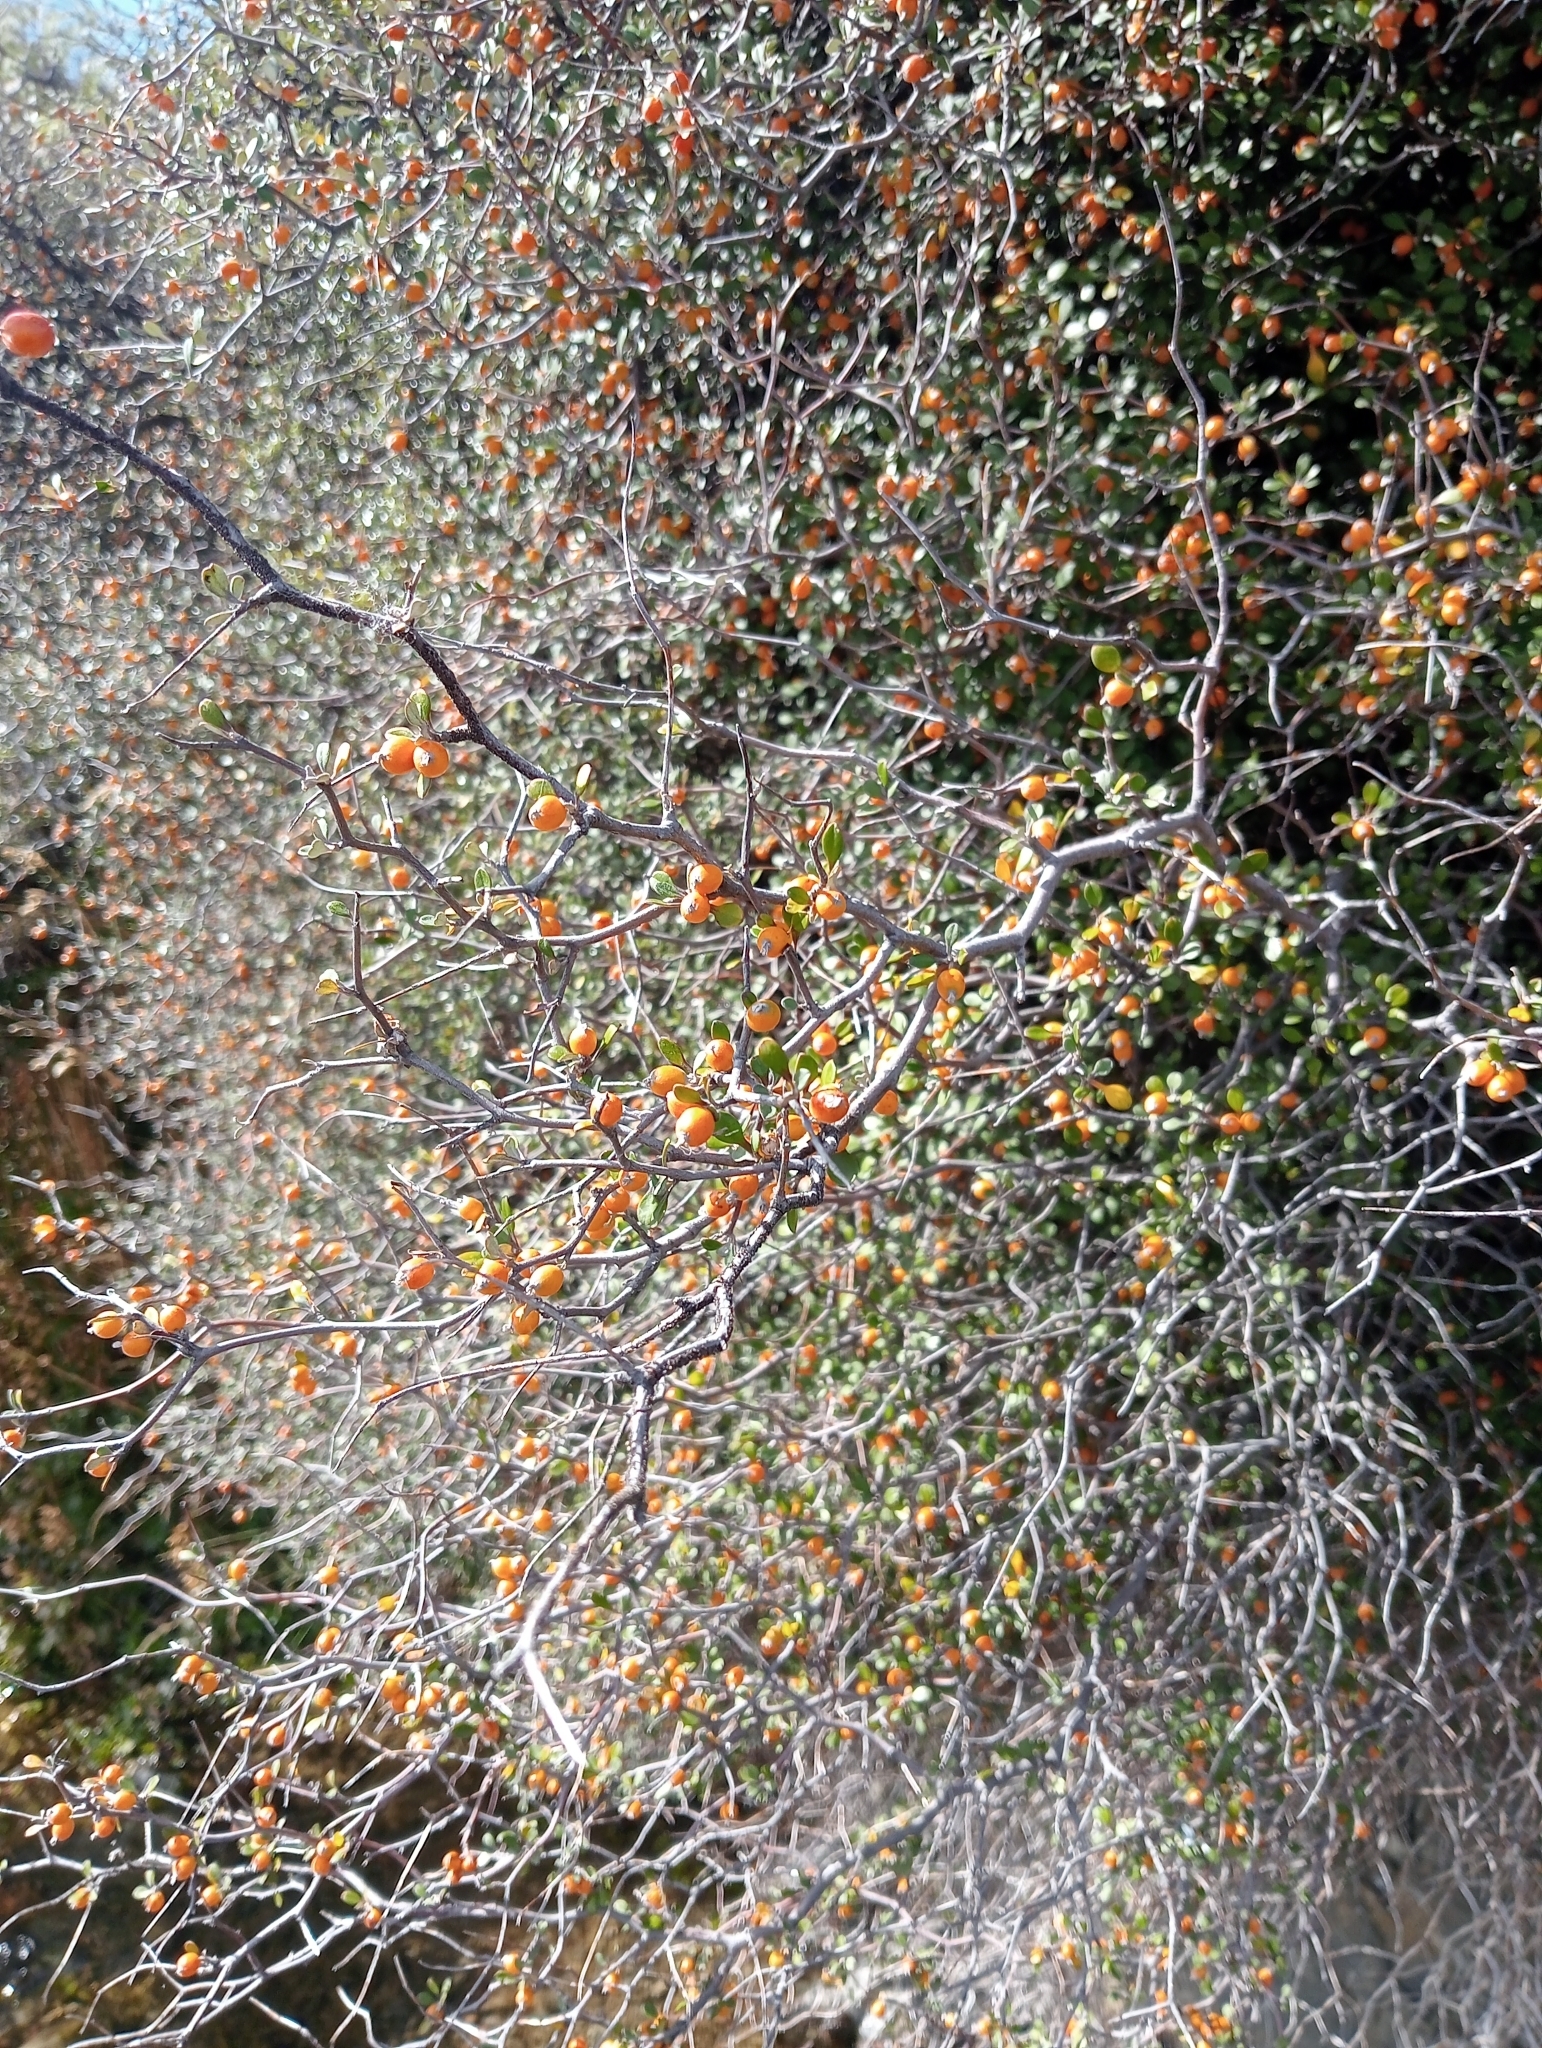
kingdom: Plantae
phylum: Tracheophyta
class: Magnoliopsida
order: Asterales
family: Argophyllaceae
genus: Corokia
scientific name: Corokia cotoneaster
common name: Wire nettingbush
